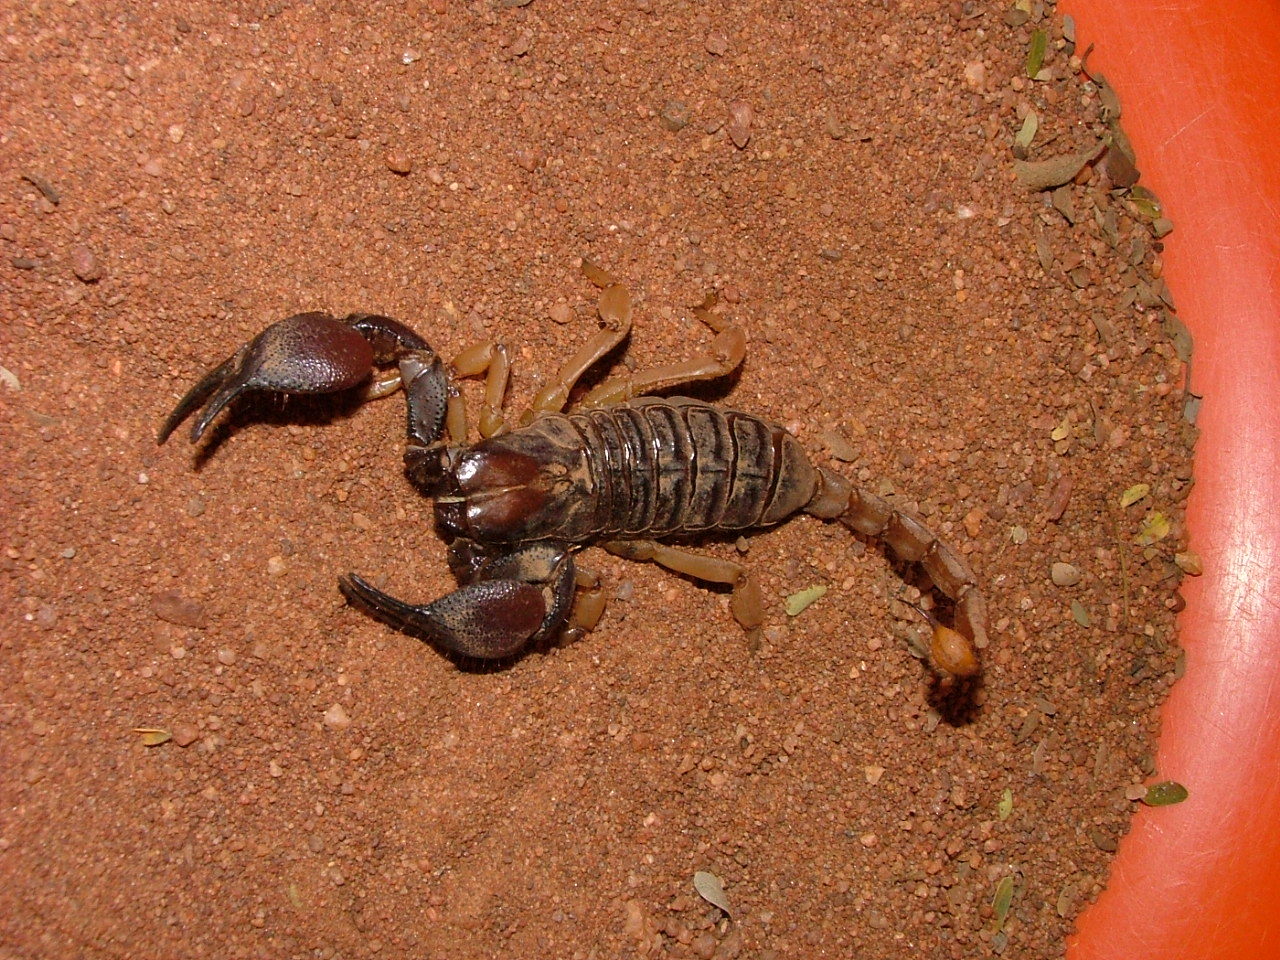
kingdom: Animalia
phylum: Arthropoda
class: Arachnida
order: Scorpiones
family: Scorpionidae
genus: Opistophthalmus
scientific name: Opistophthalmus glabrifrons
